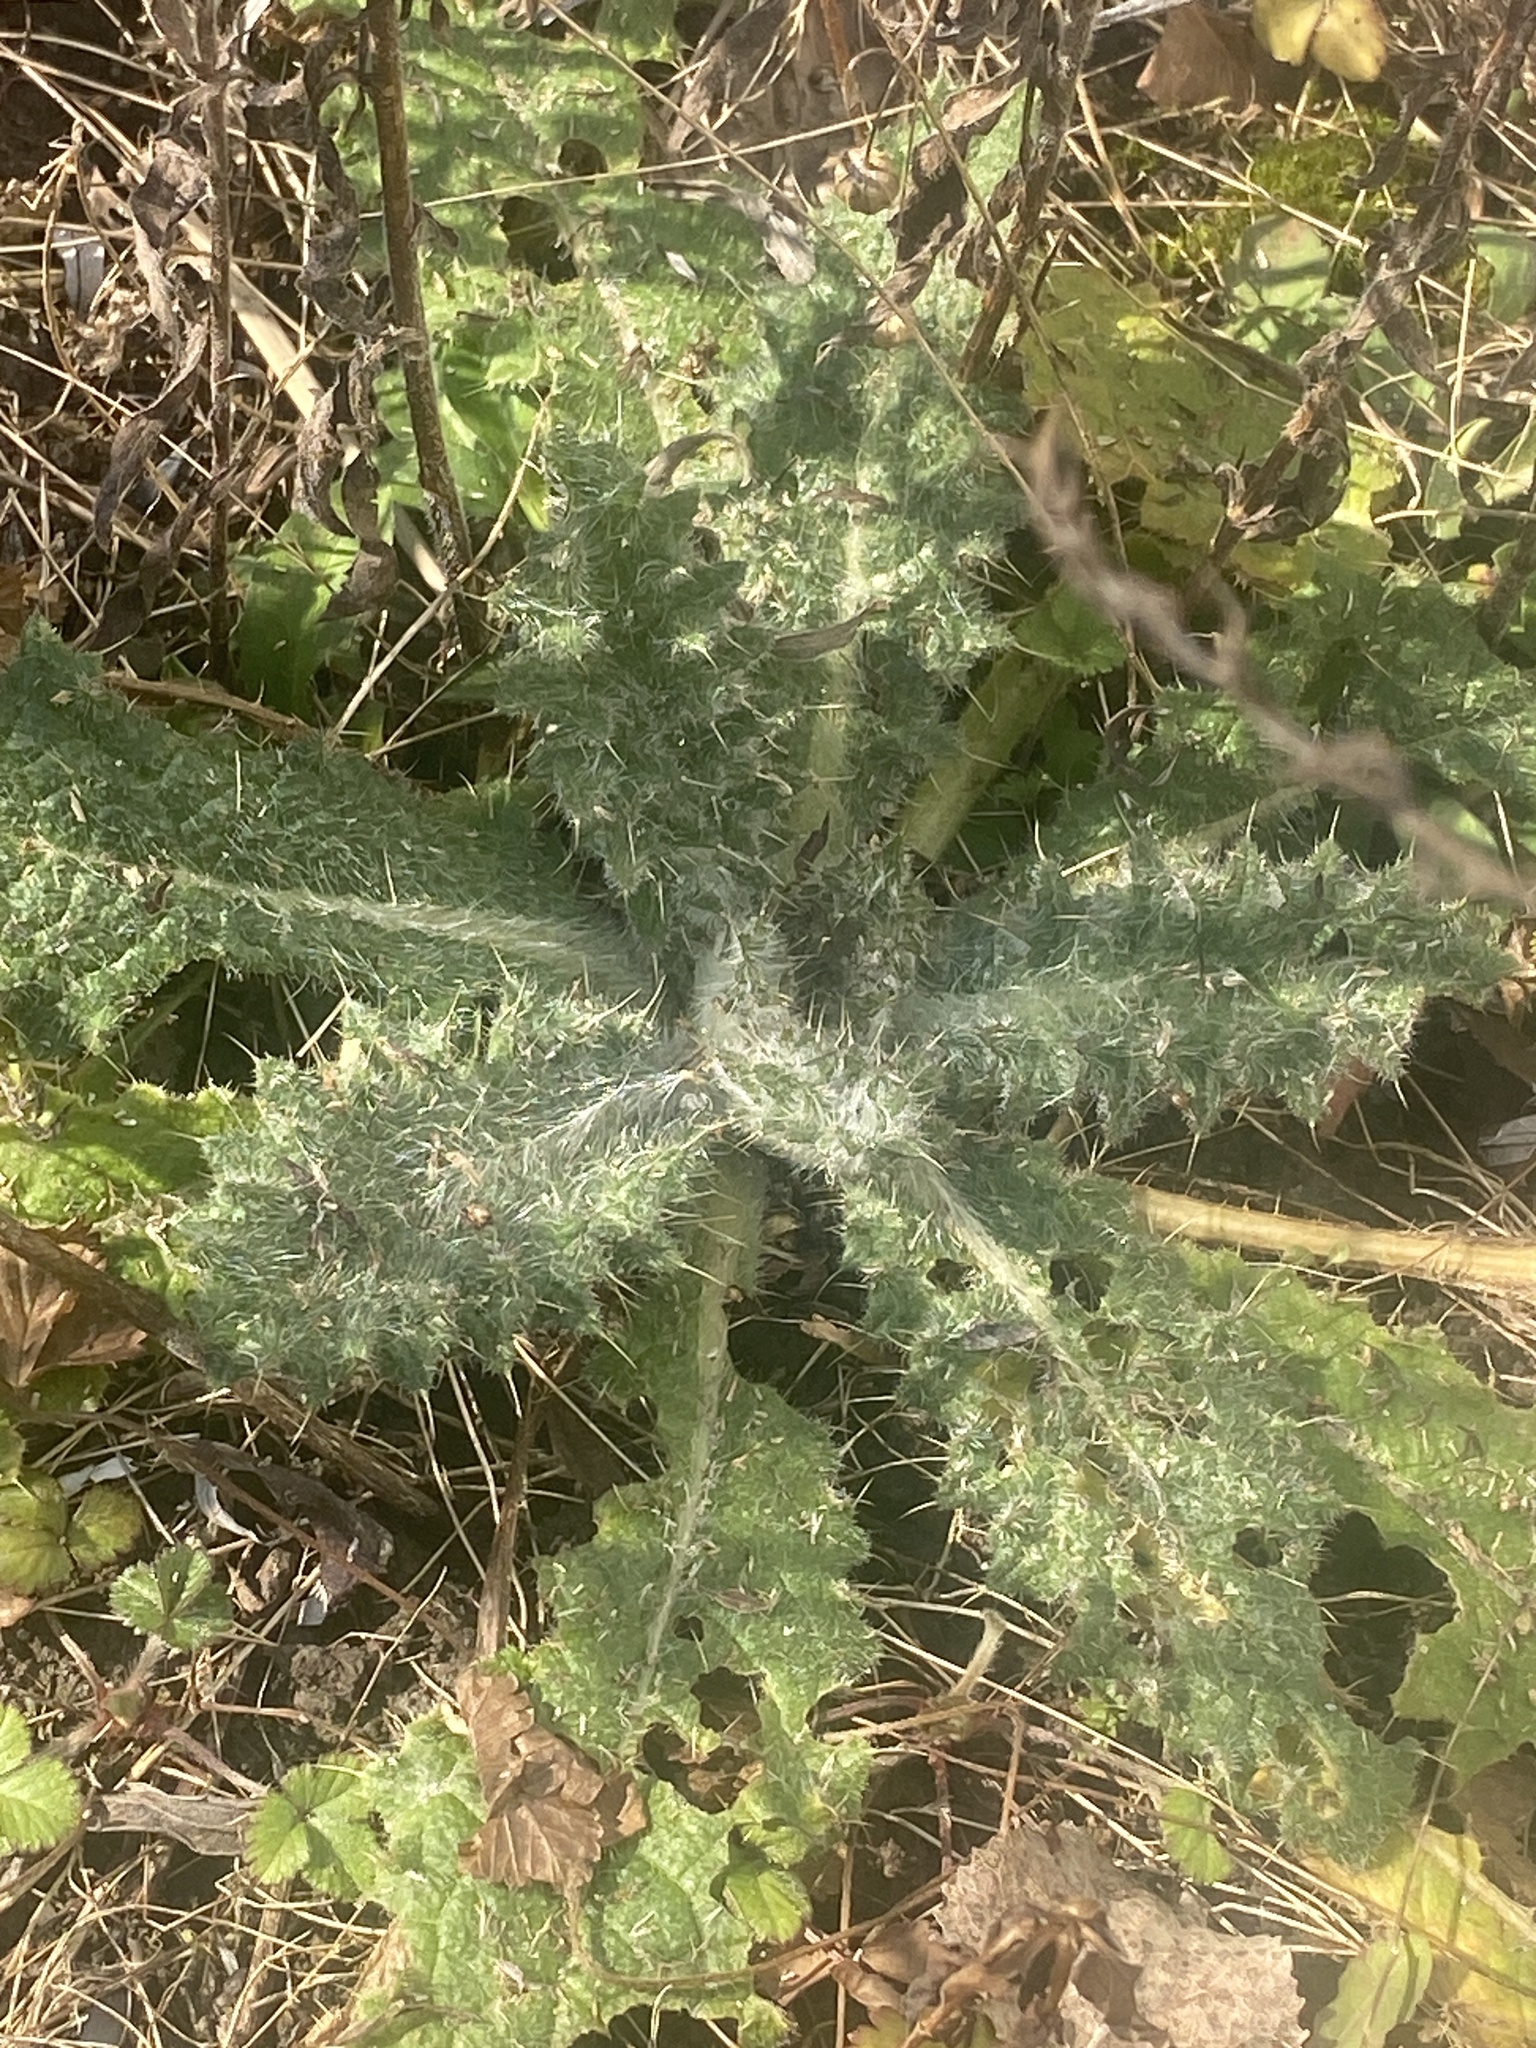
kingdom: Plantae
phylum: Tracheophyta
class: Magnoliopsida
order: Asterales
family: Asteraceae
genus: Cirsium
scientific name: Cirsium vulgare
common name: Bull thistle
